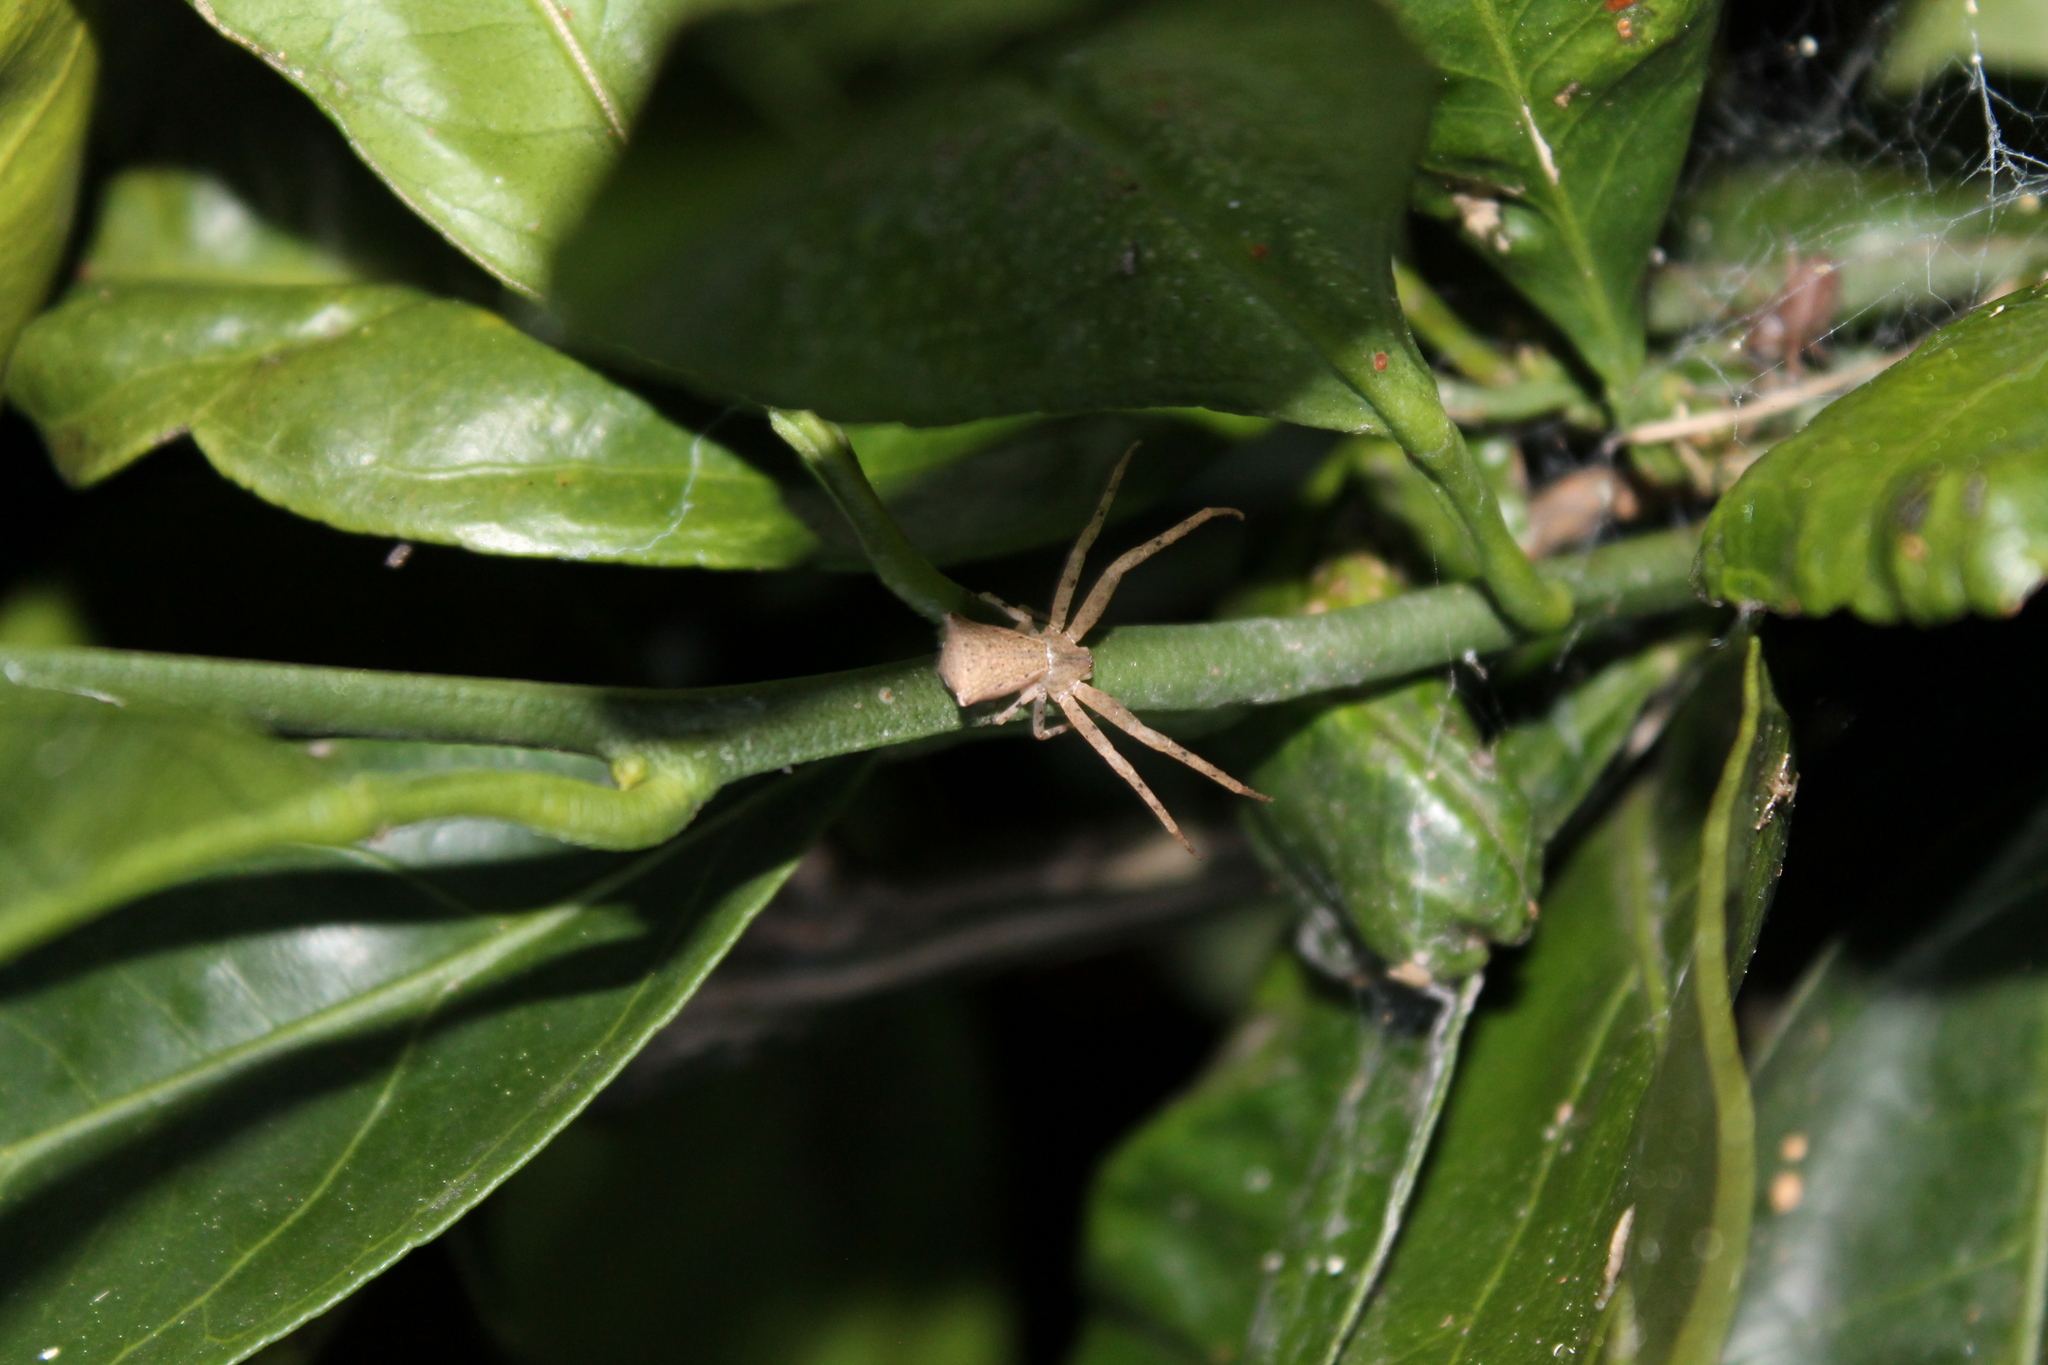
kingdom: Animalia
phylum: Arthropoda
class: Arachnida
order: Araneae
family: Thomisidae
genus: Sidymella
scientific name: Sidymella trapezia
